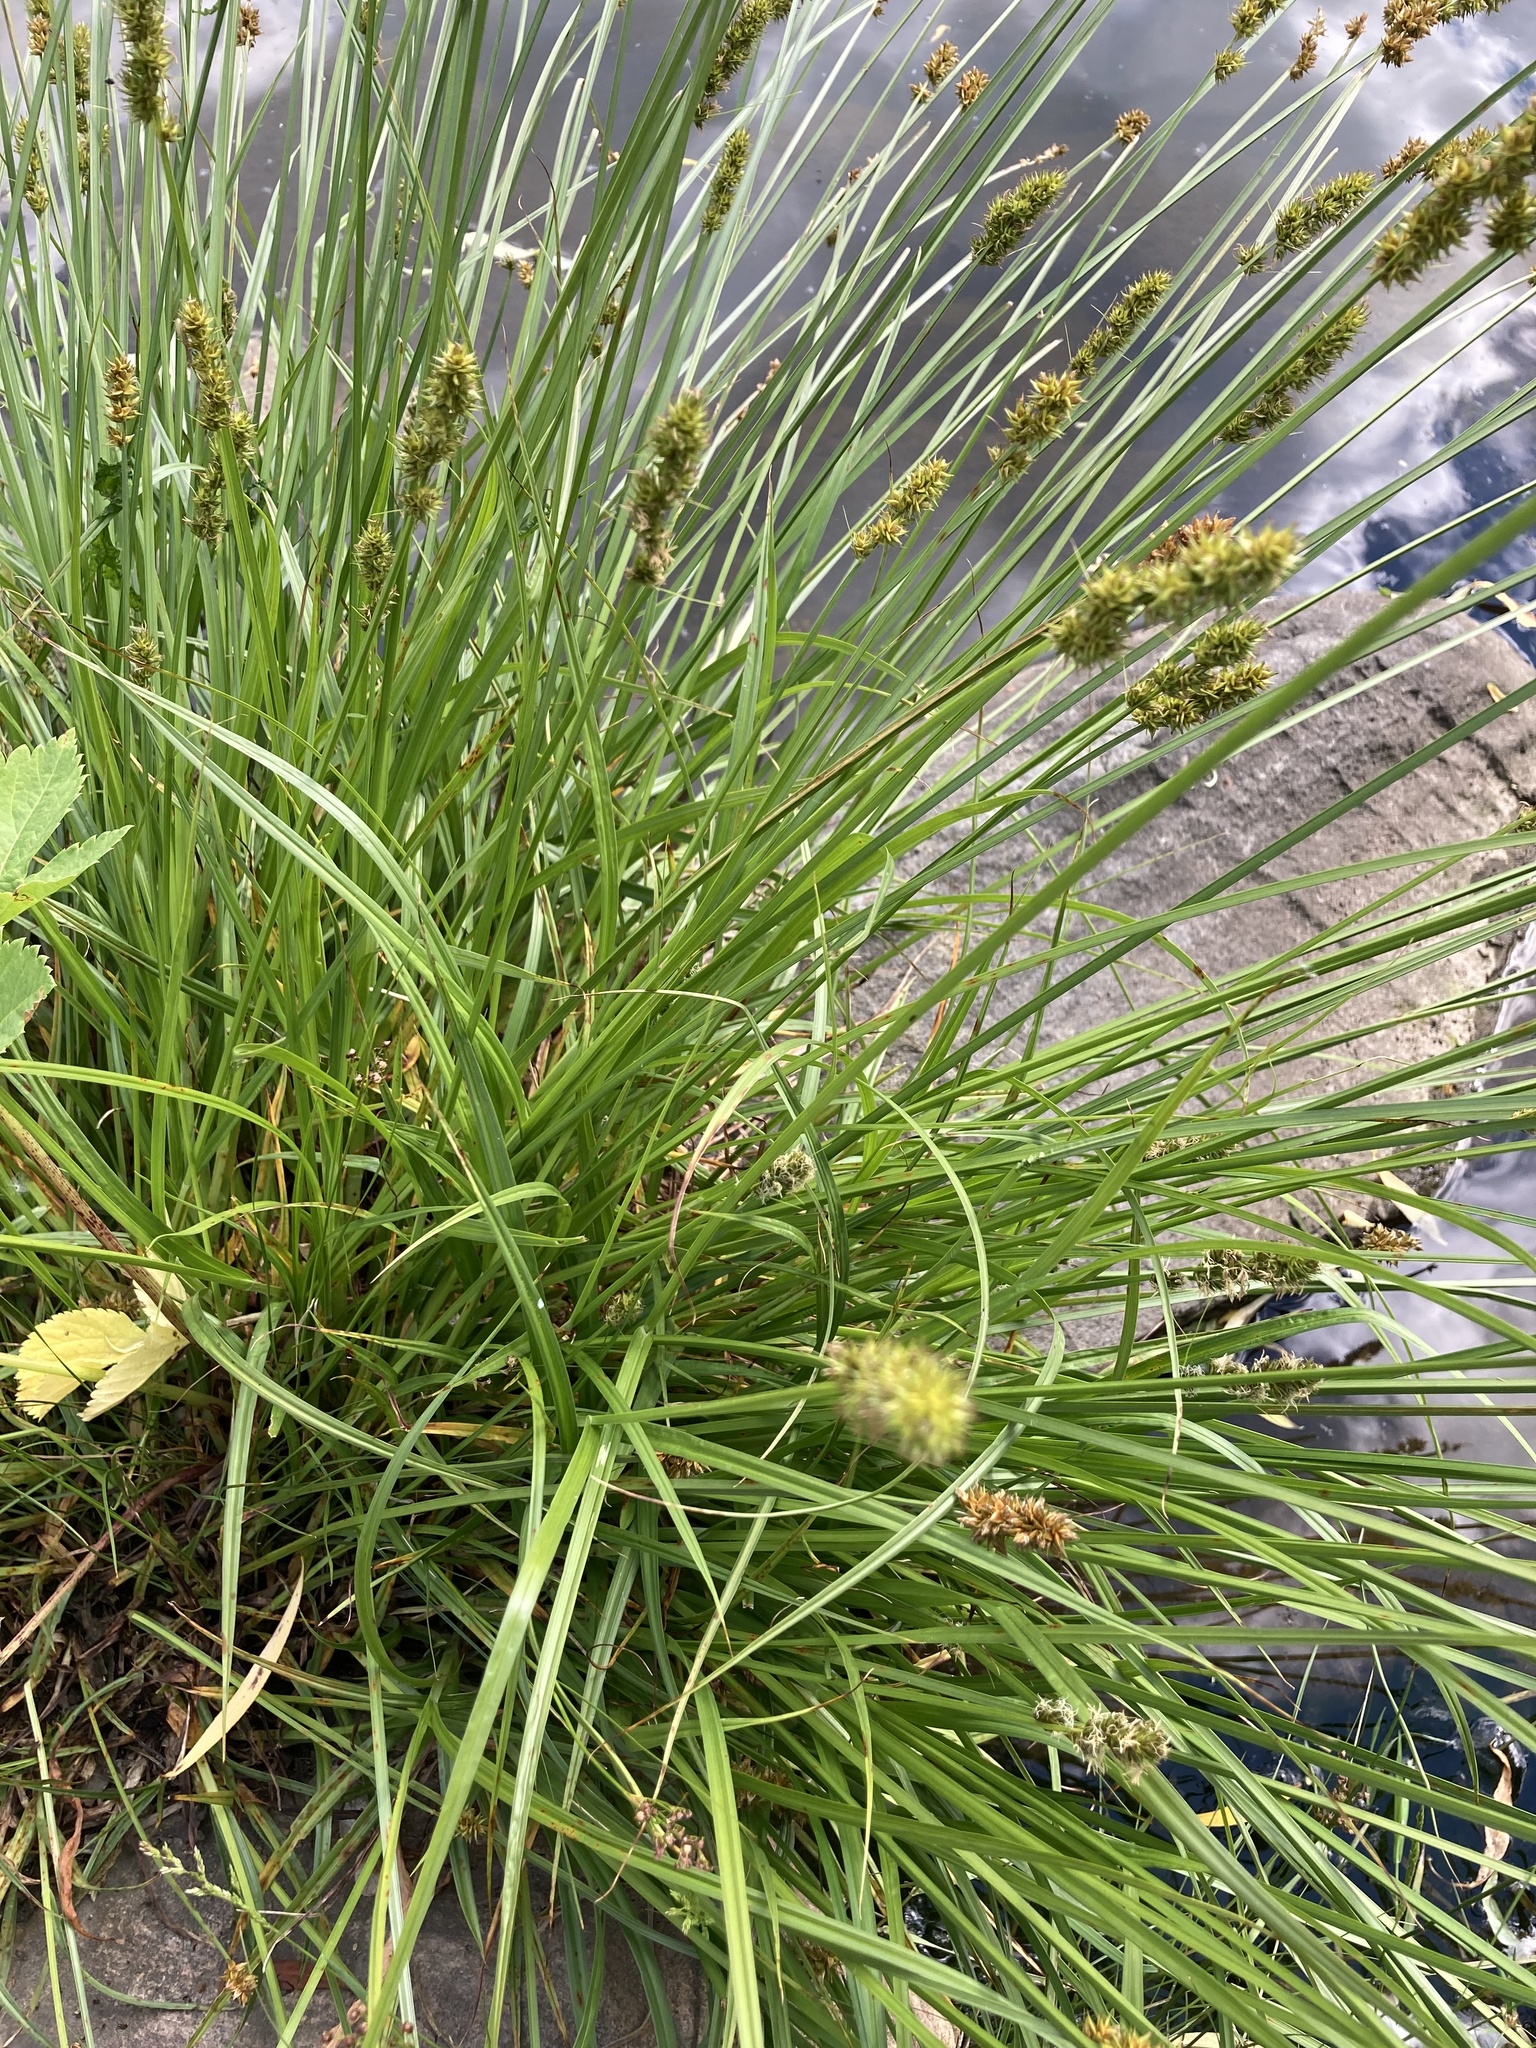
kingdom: Plantae
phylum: Tracheophyta
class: Liliopsida
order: Poales
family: Cyperaceae
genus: Carex
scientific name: Carex otrubae
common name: False fox-sedge
